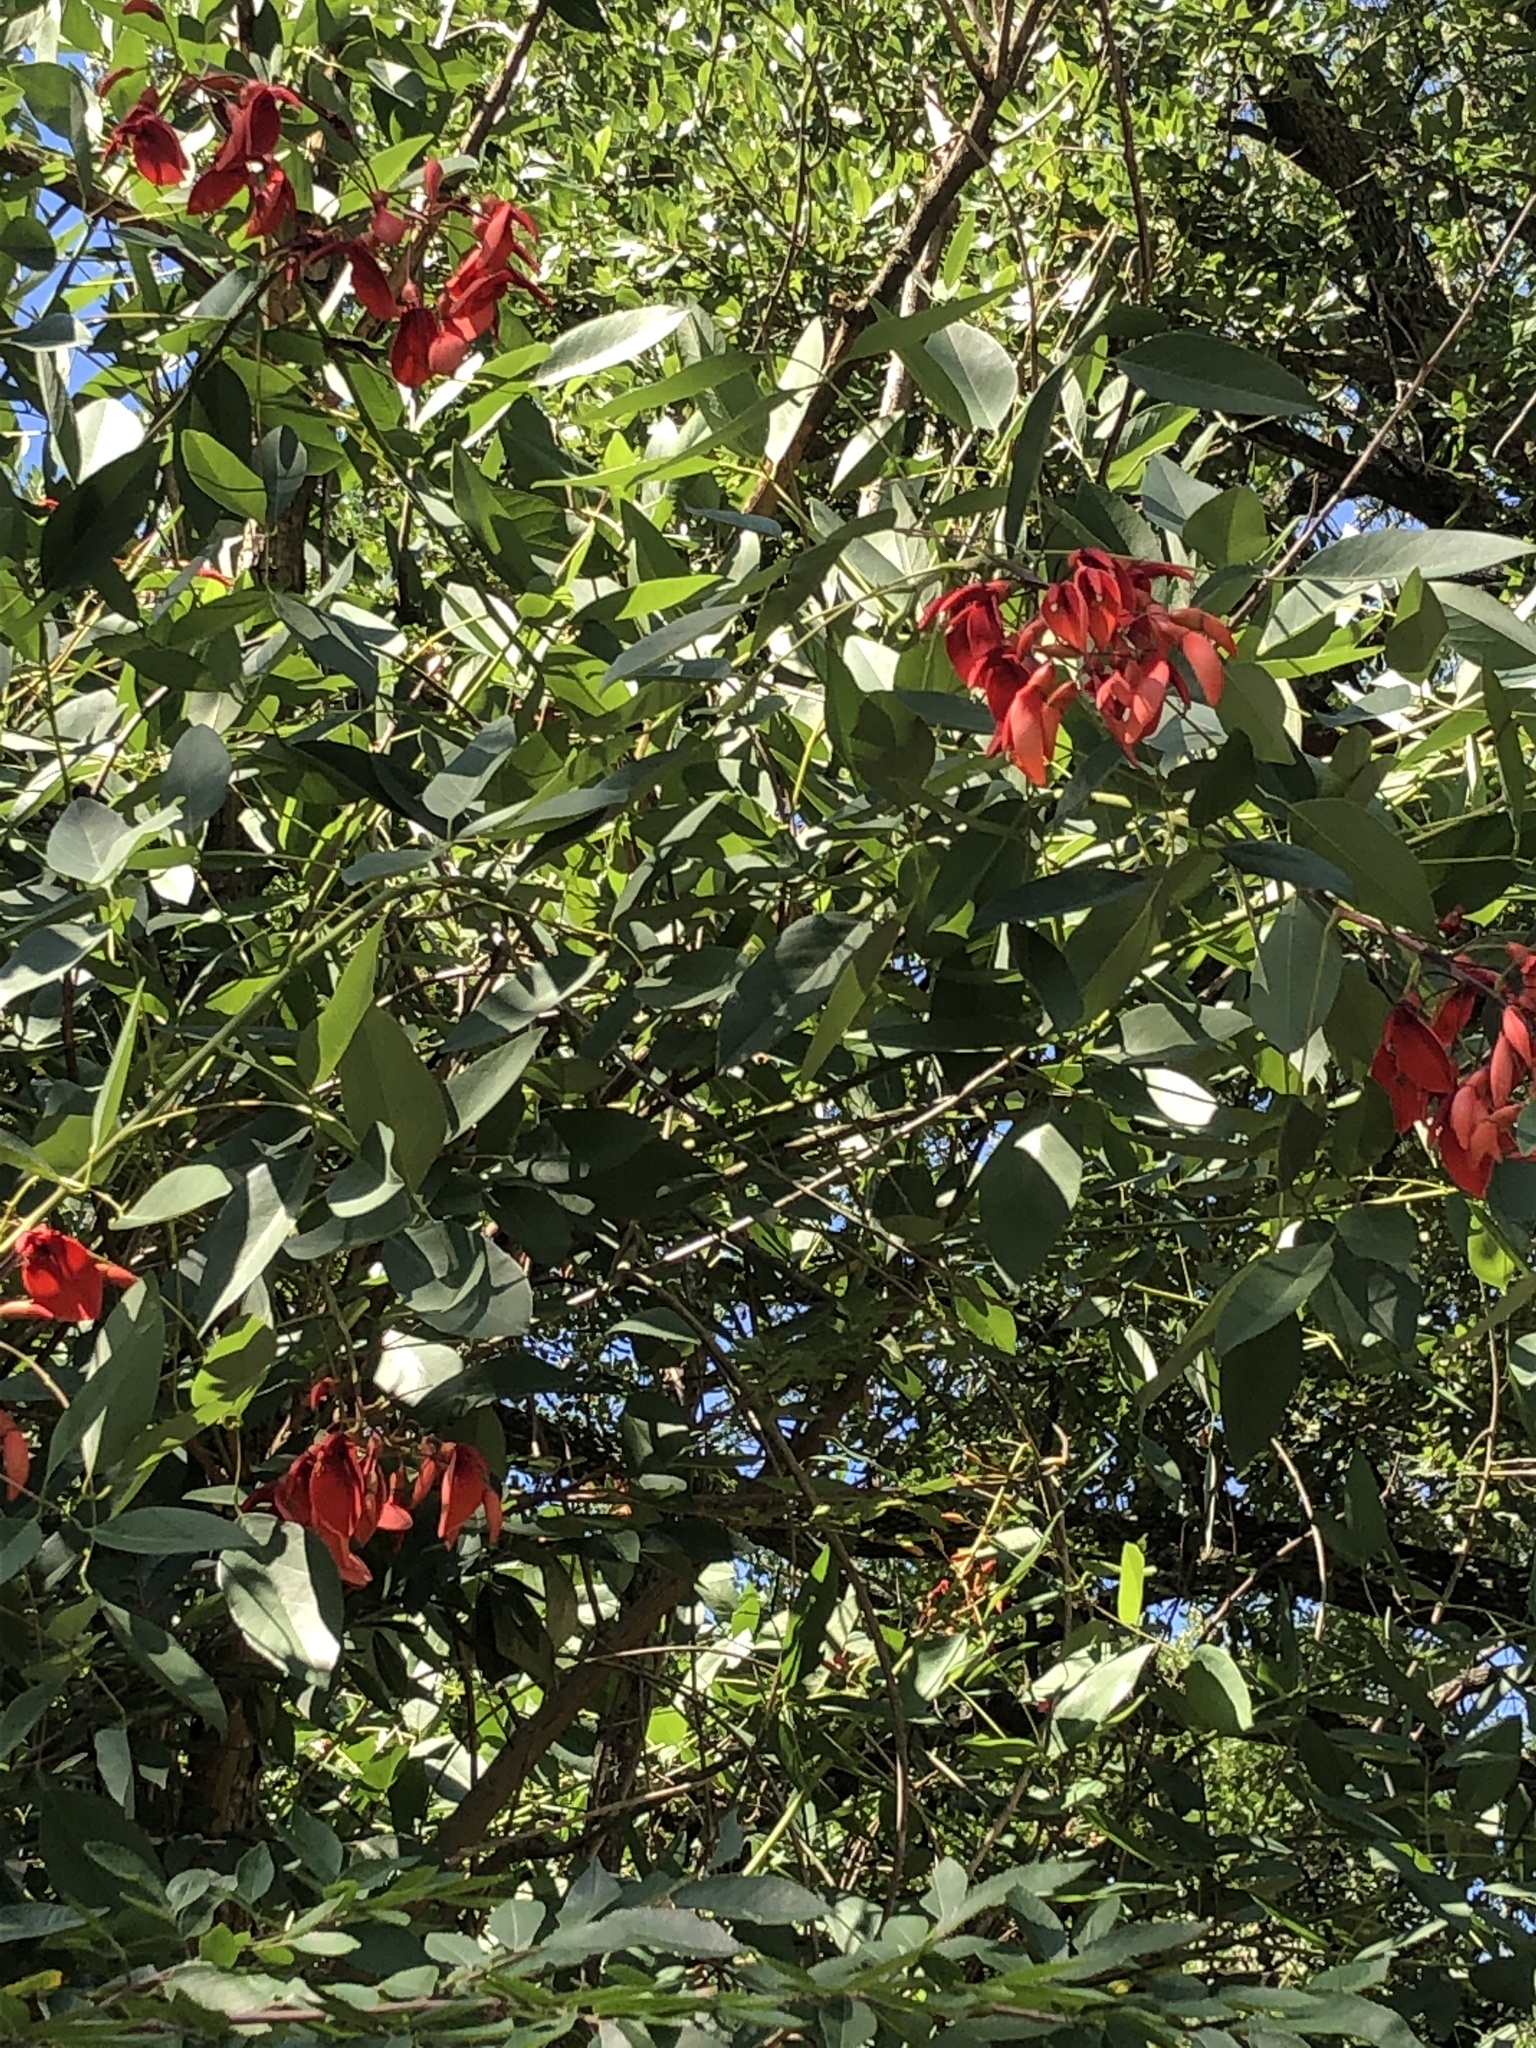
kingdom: Plantae
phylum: Tracheophyta
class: Magnoliopsida
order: Fabales
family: Fabaceae
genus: Erythrina
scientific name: Erythrina crista-galli
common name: Cockspur coral tree
